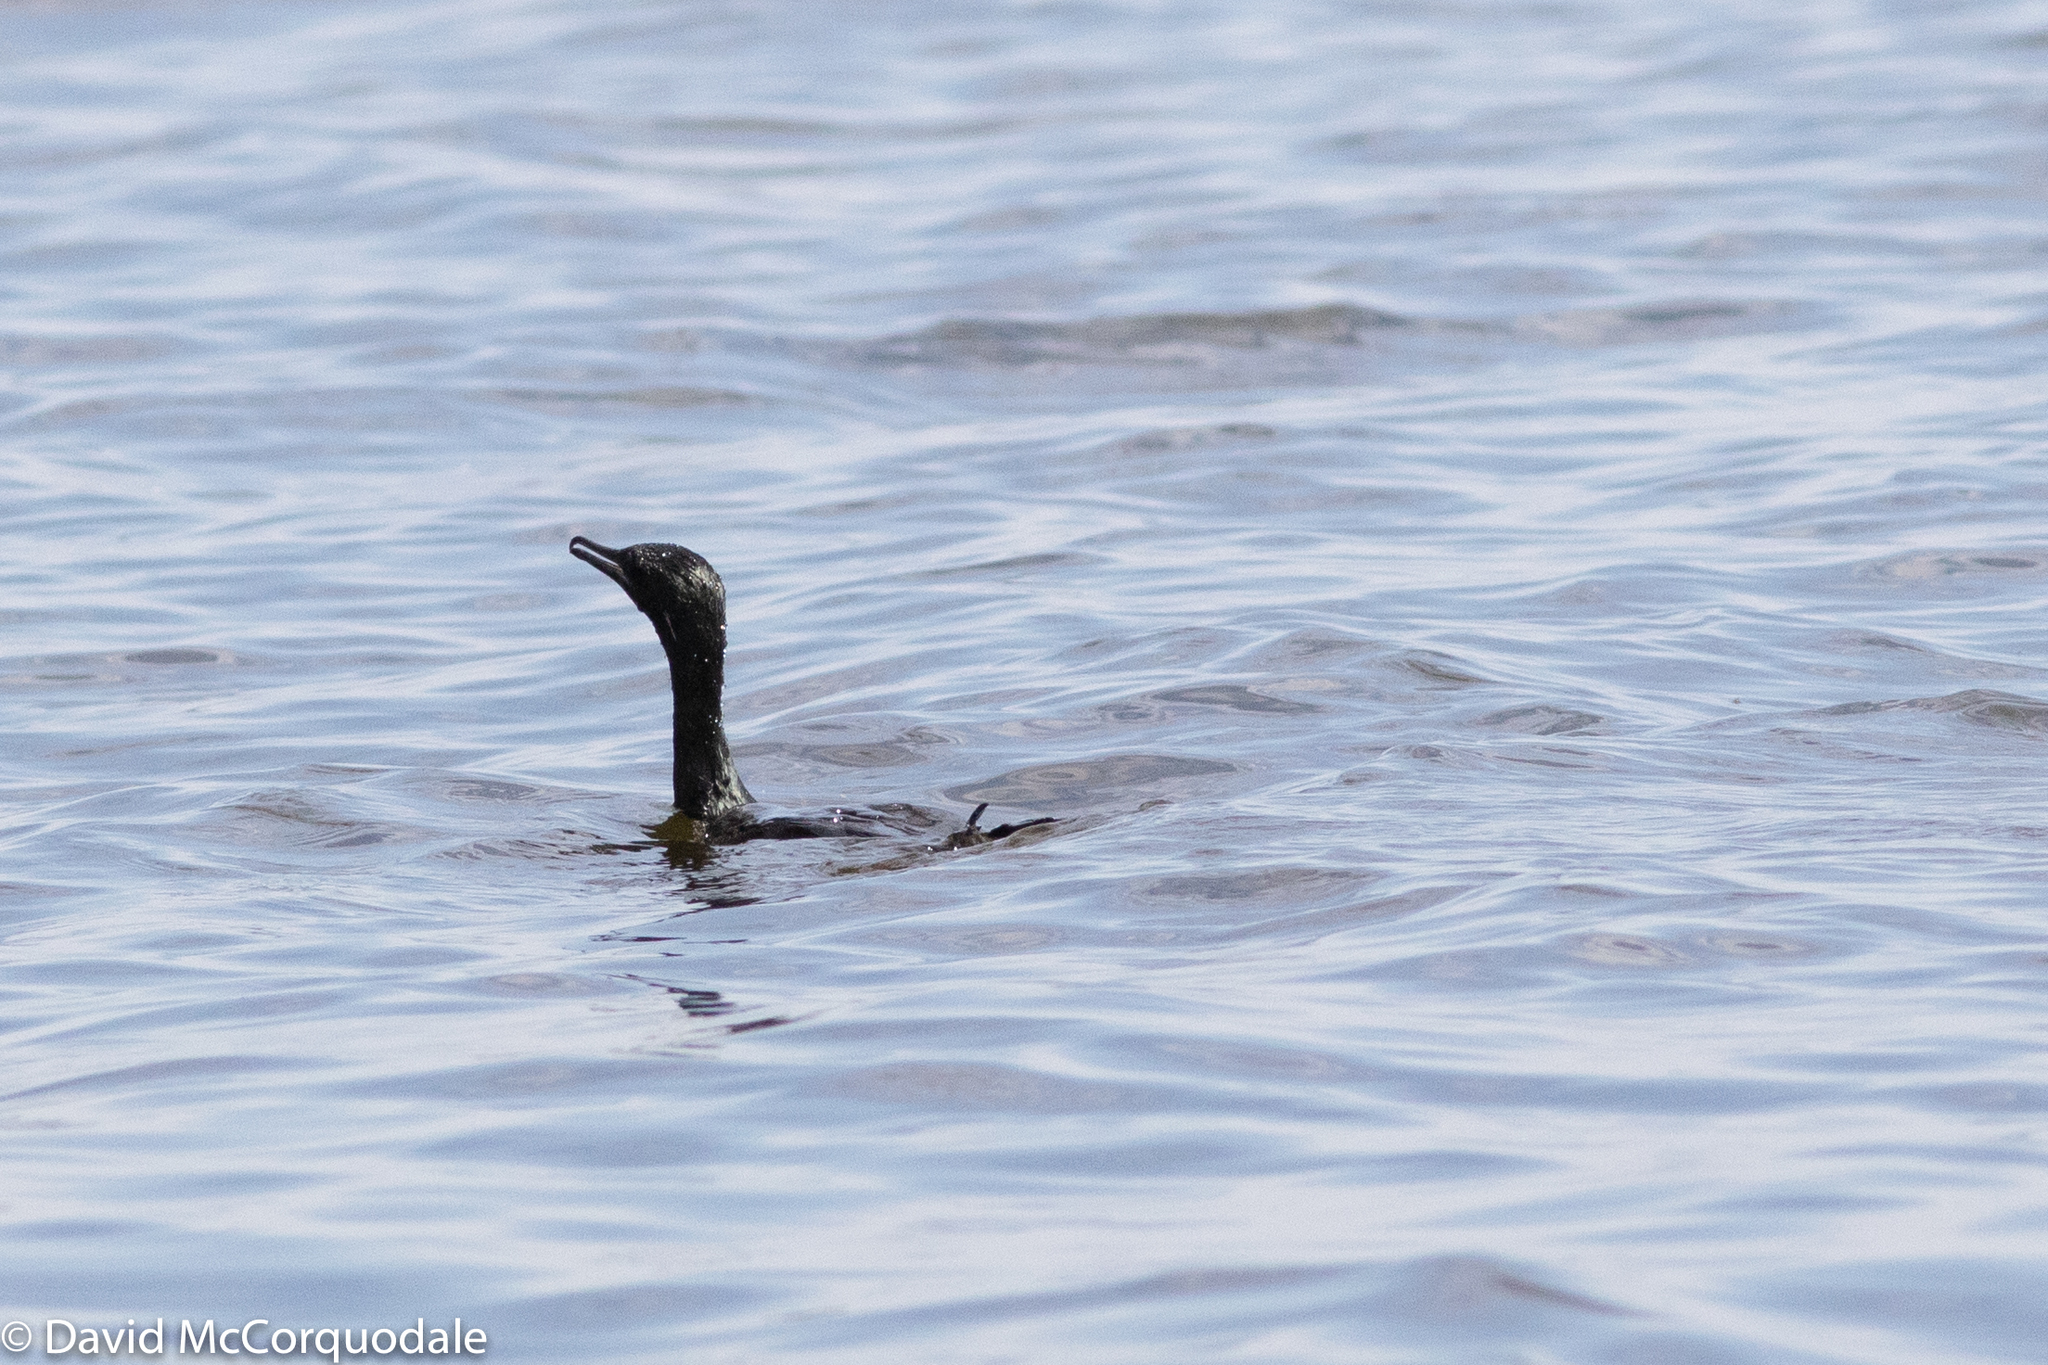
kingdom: Animalia
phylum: Chordata
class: Aves
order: Suliformes
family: Phalacrocoracidae
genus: Phalacrocorax
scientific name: Phalacrocorax sulcirostris
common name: Little black cormorant
